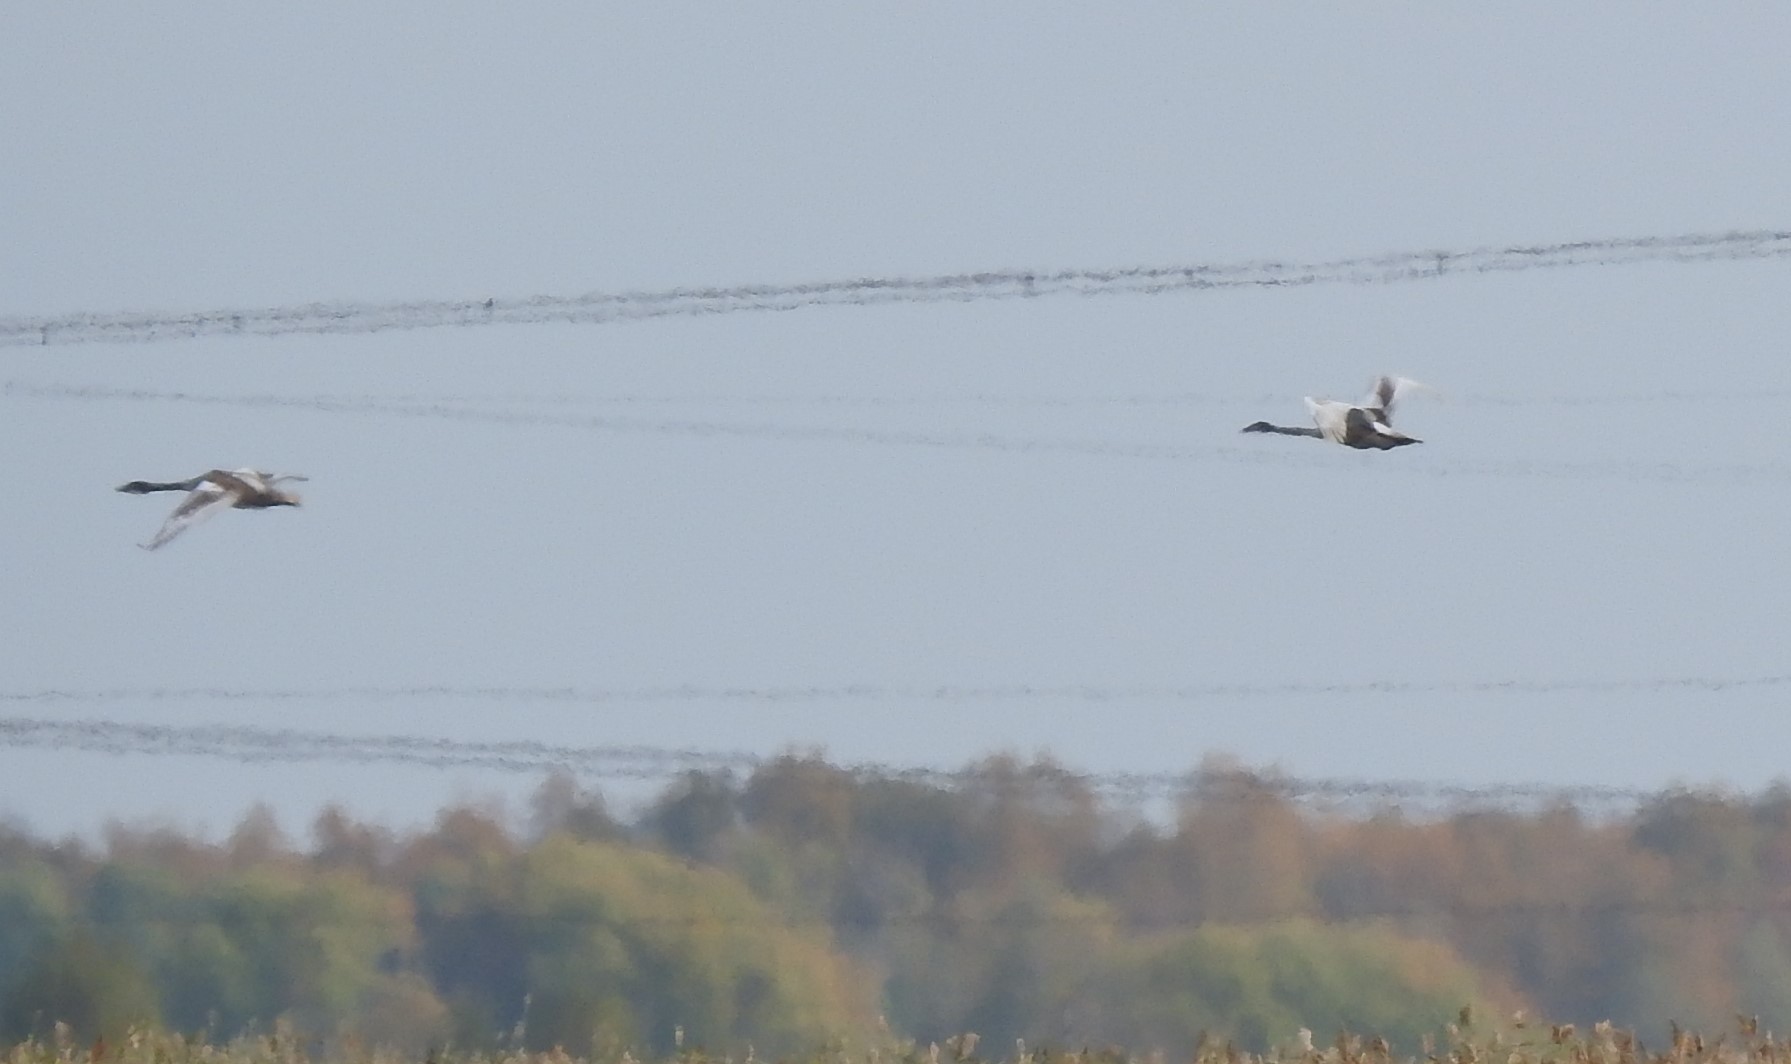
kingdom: Animalia
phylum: Chordata
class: Aves
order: Anseriformes
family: Anatidae
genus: Cygnus
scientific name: Cygnus cygnus
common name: Whooper swan
